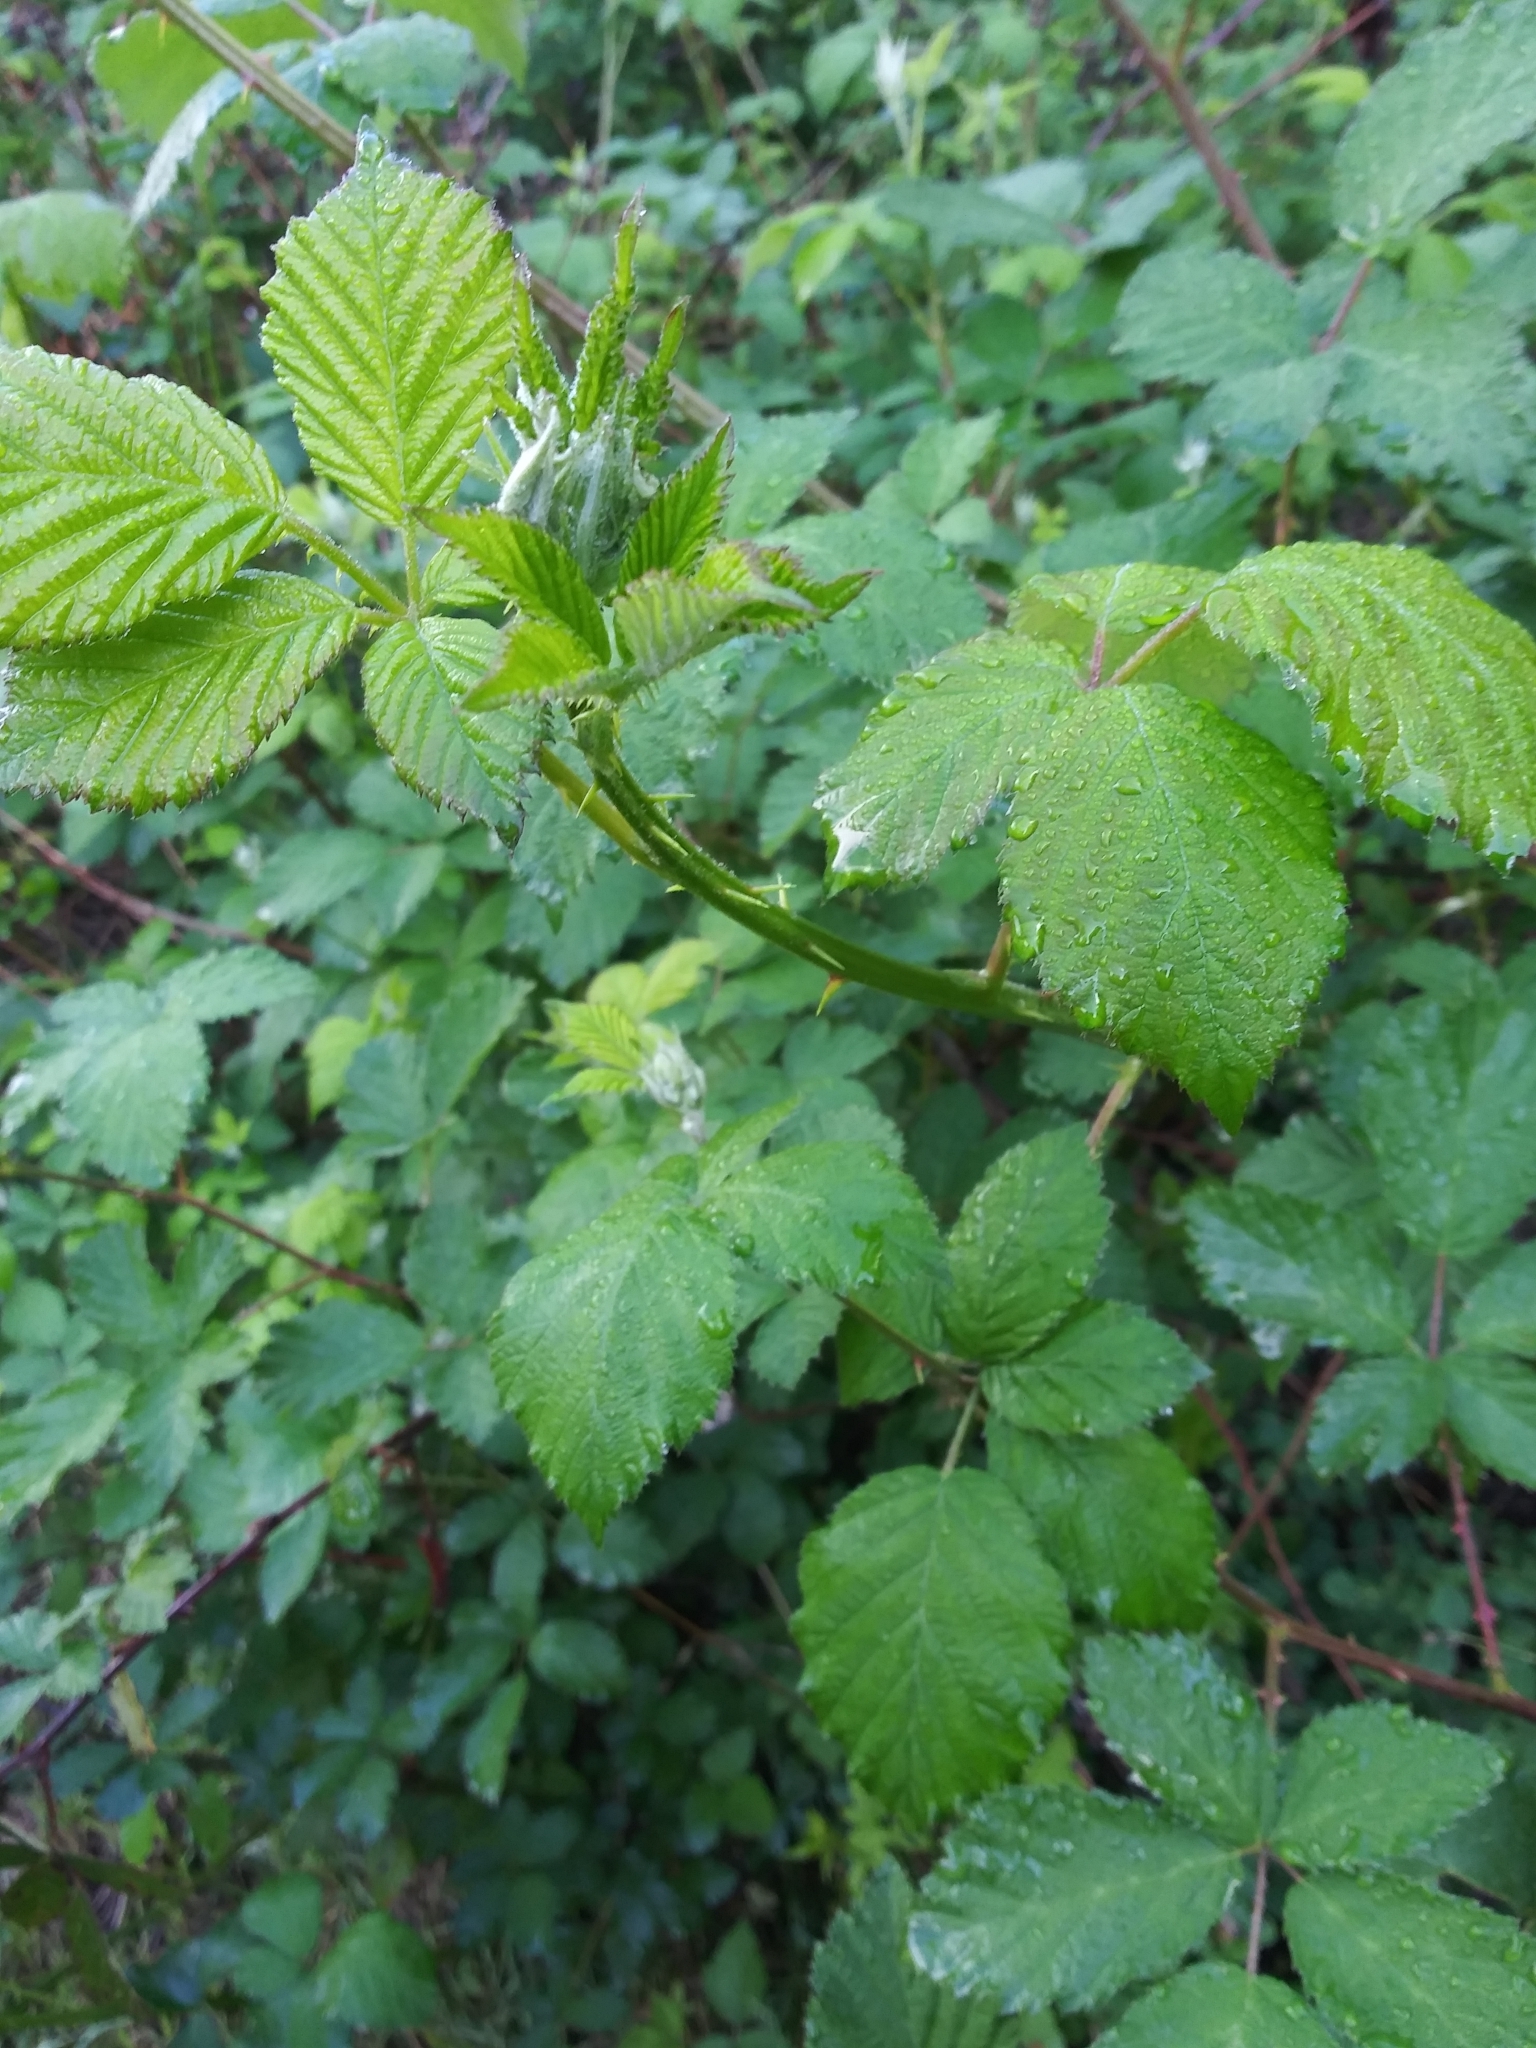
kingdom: Plantae
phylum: Tracheophyta
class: Magnoliopsida
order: Rosales
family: Rosaceae
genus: Rubus
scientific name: Rubus armeniacus
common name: Himalayan blackberry
